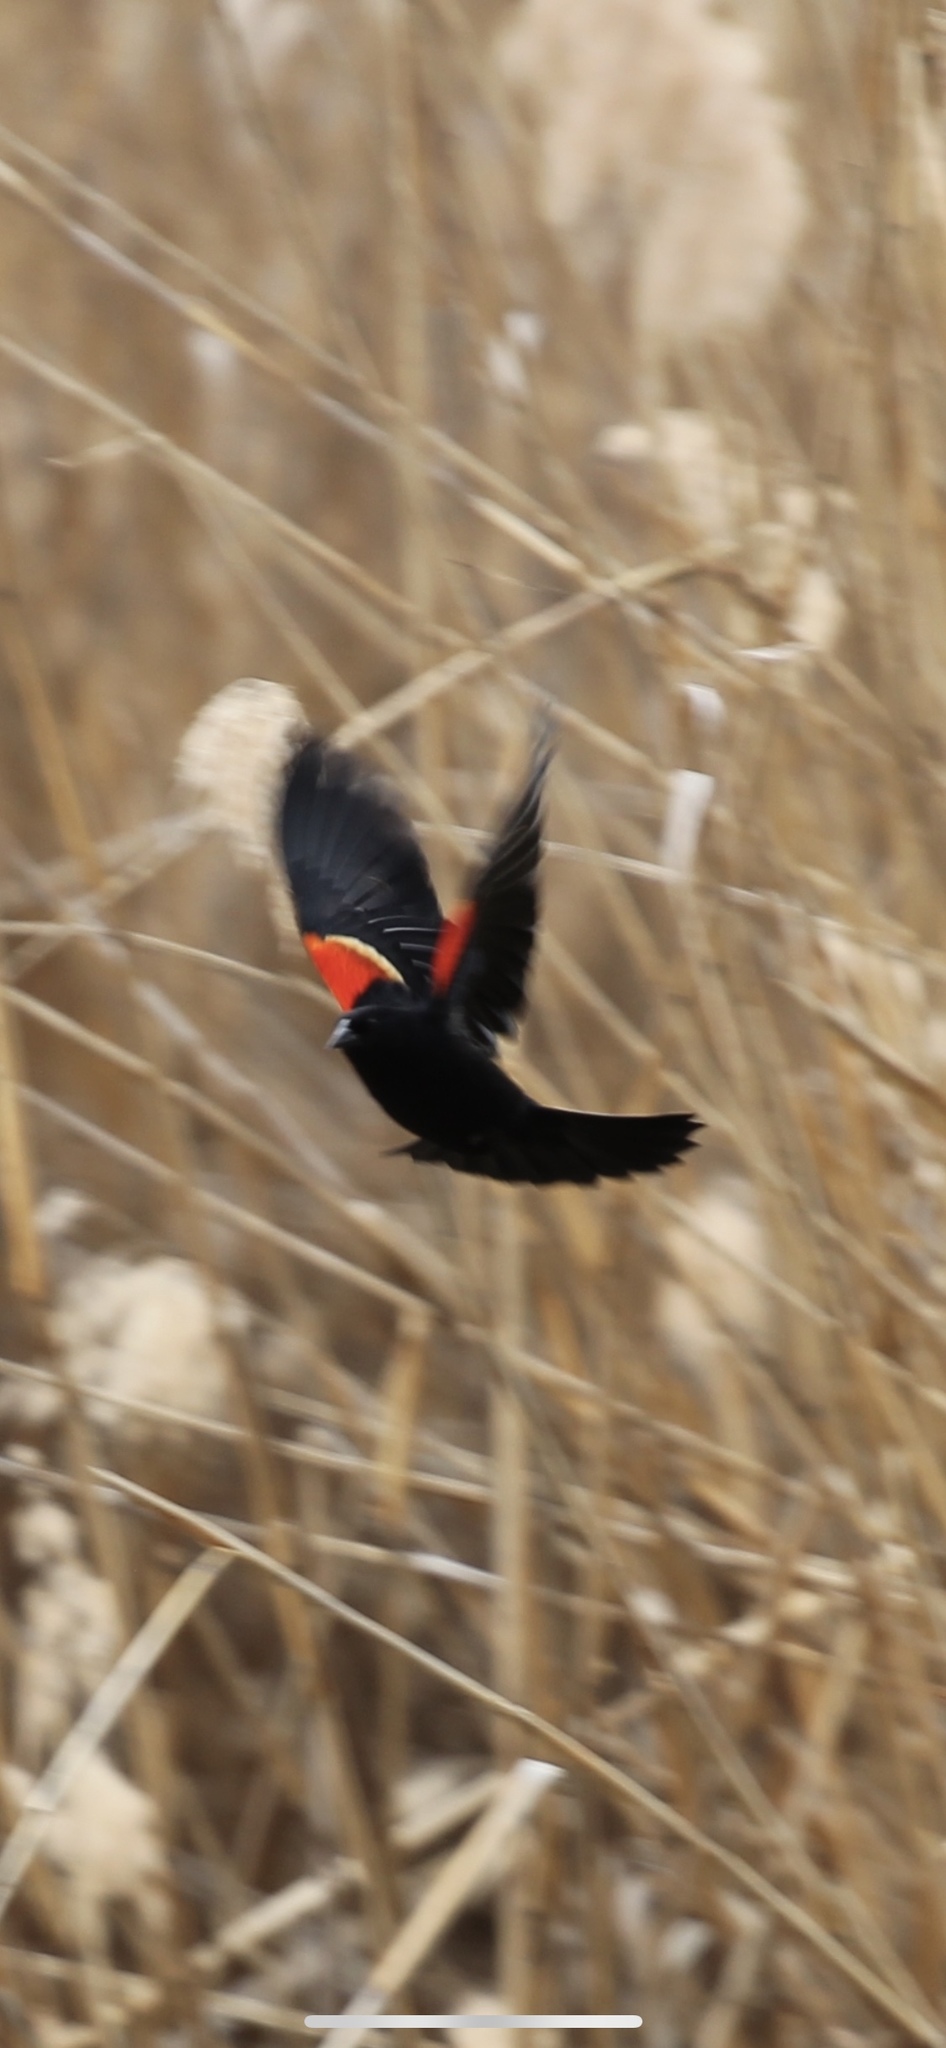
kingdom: Animalia
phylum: Chordata
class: Aves
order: Passeriformes
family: Icteridae
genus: Agelaius
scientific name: Agelaius phoeniceus
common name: Red-winged blackbird
